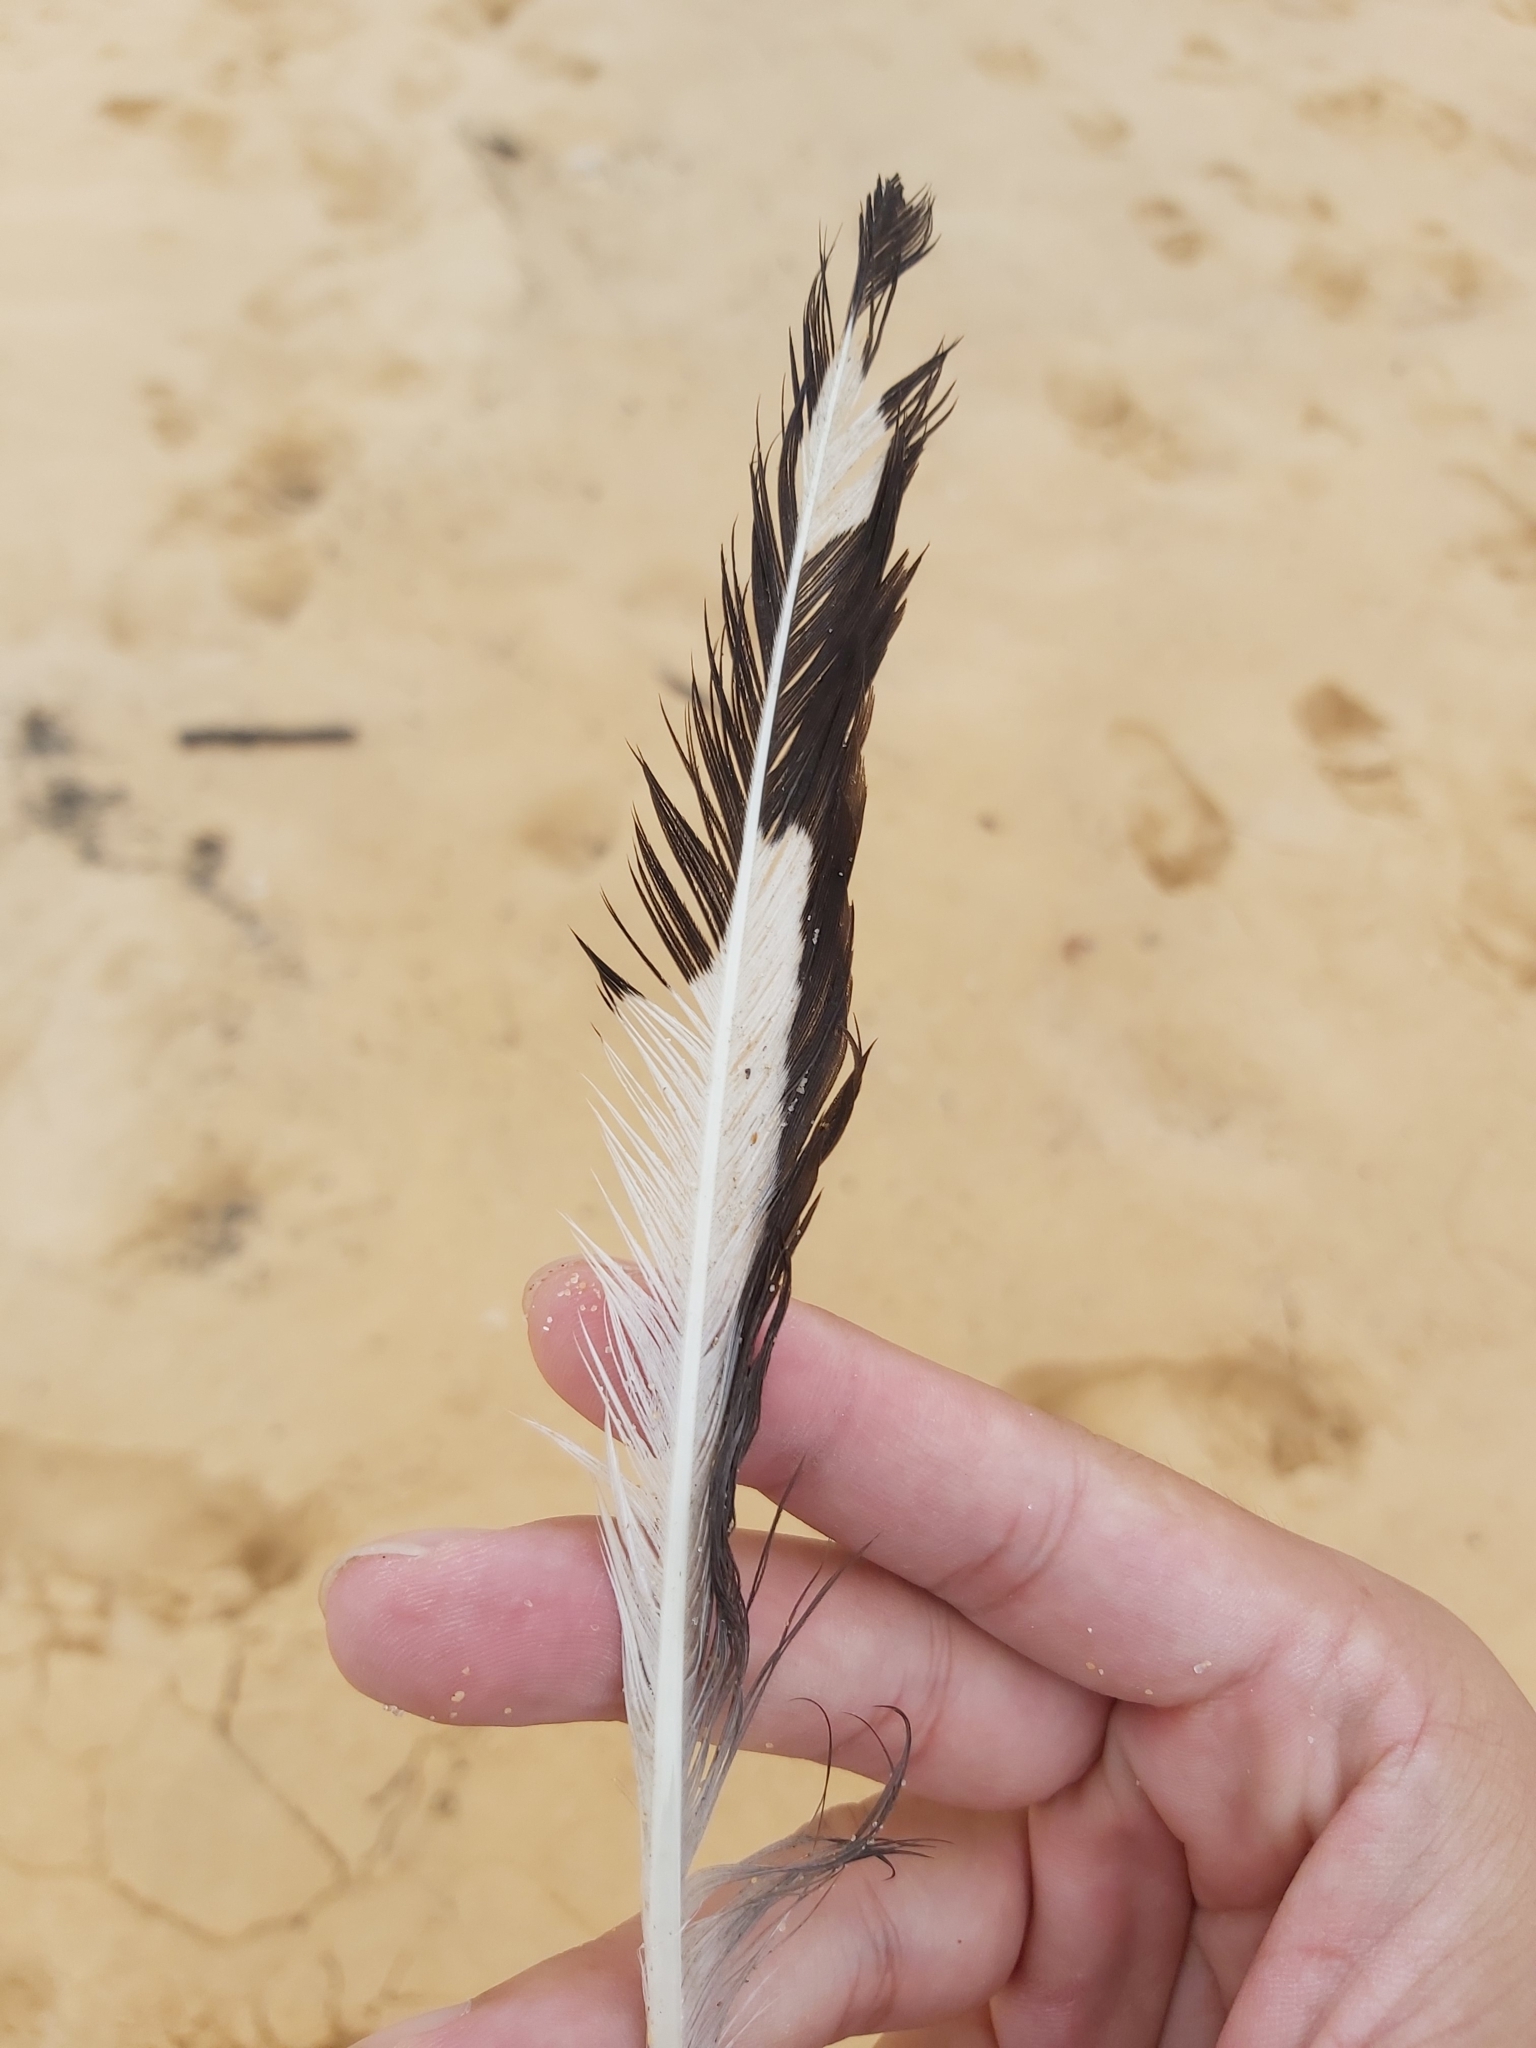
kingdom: Animalia
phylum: Chordata
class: Aves
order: Charadriiformes
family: Laridae
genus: Chroicocephalus
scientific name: Chroicocephalus novaehollandiae
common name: Silver gull
